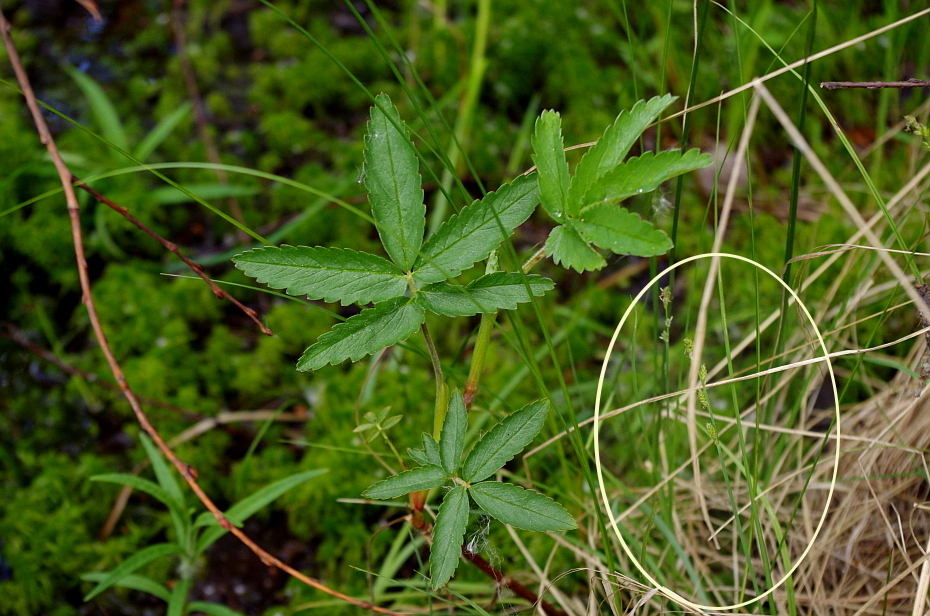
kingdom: Plantae
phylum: Tracheophyta
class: Liliopsida
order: Poales
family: Cyperaceae
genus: Carex
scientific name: Carex canescens
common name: White sedge
